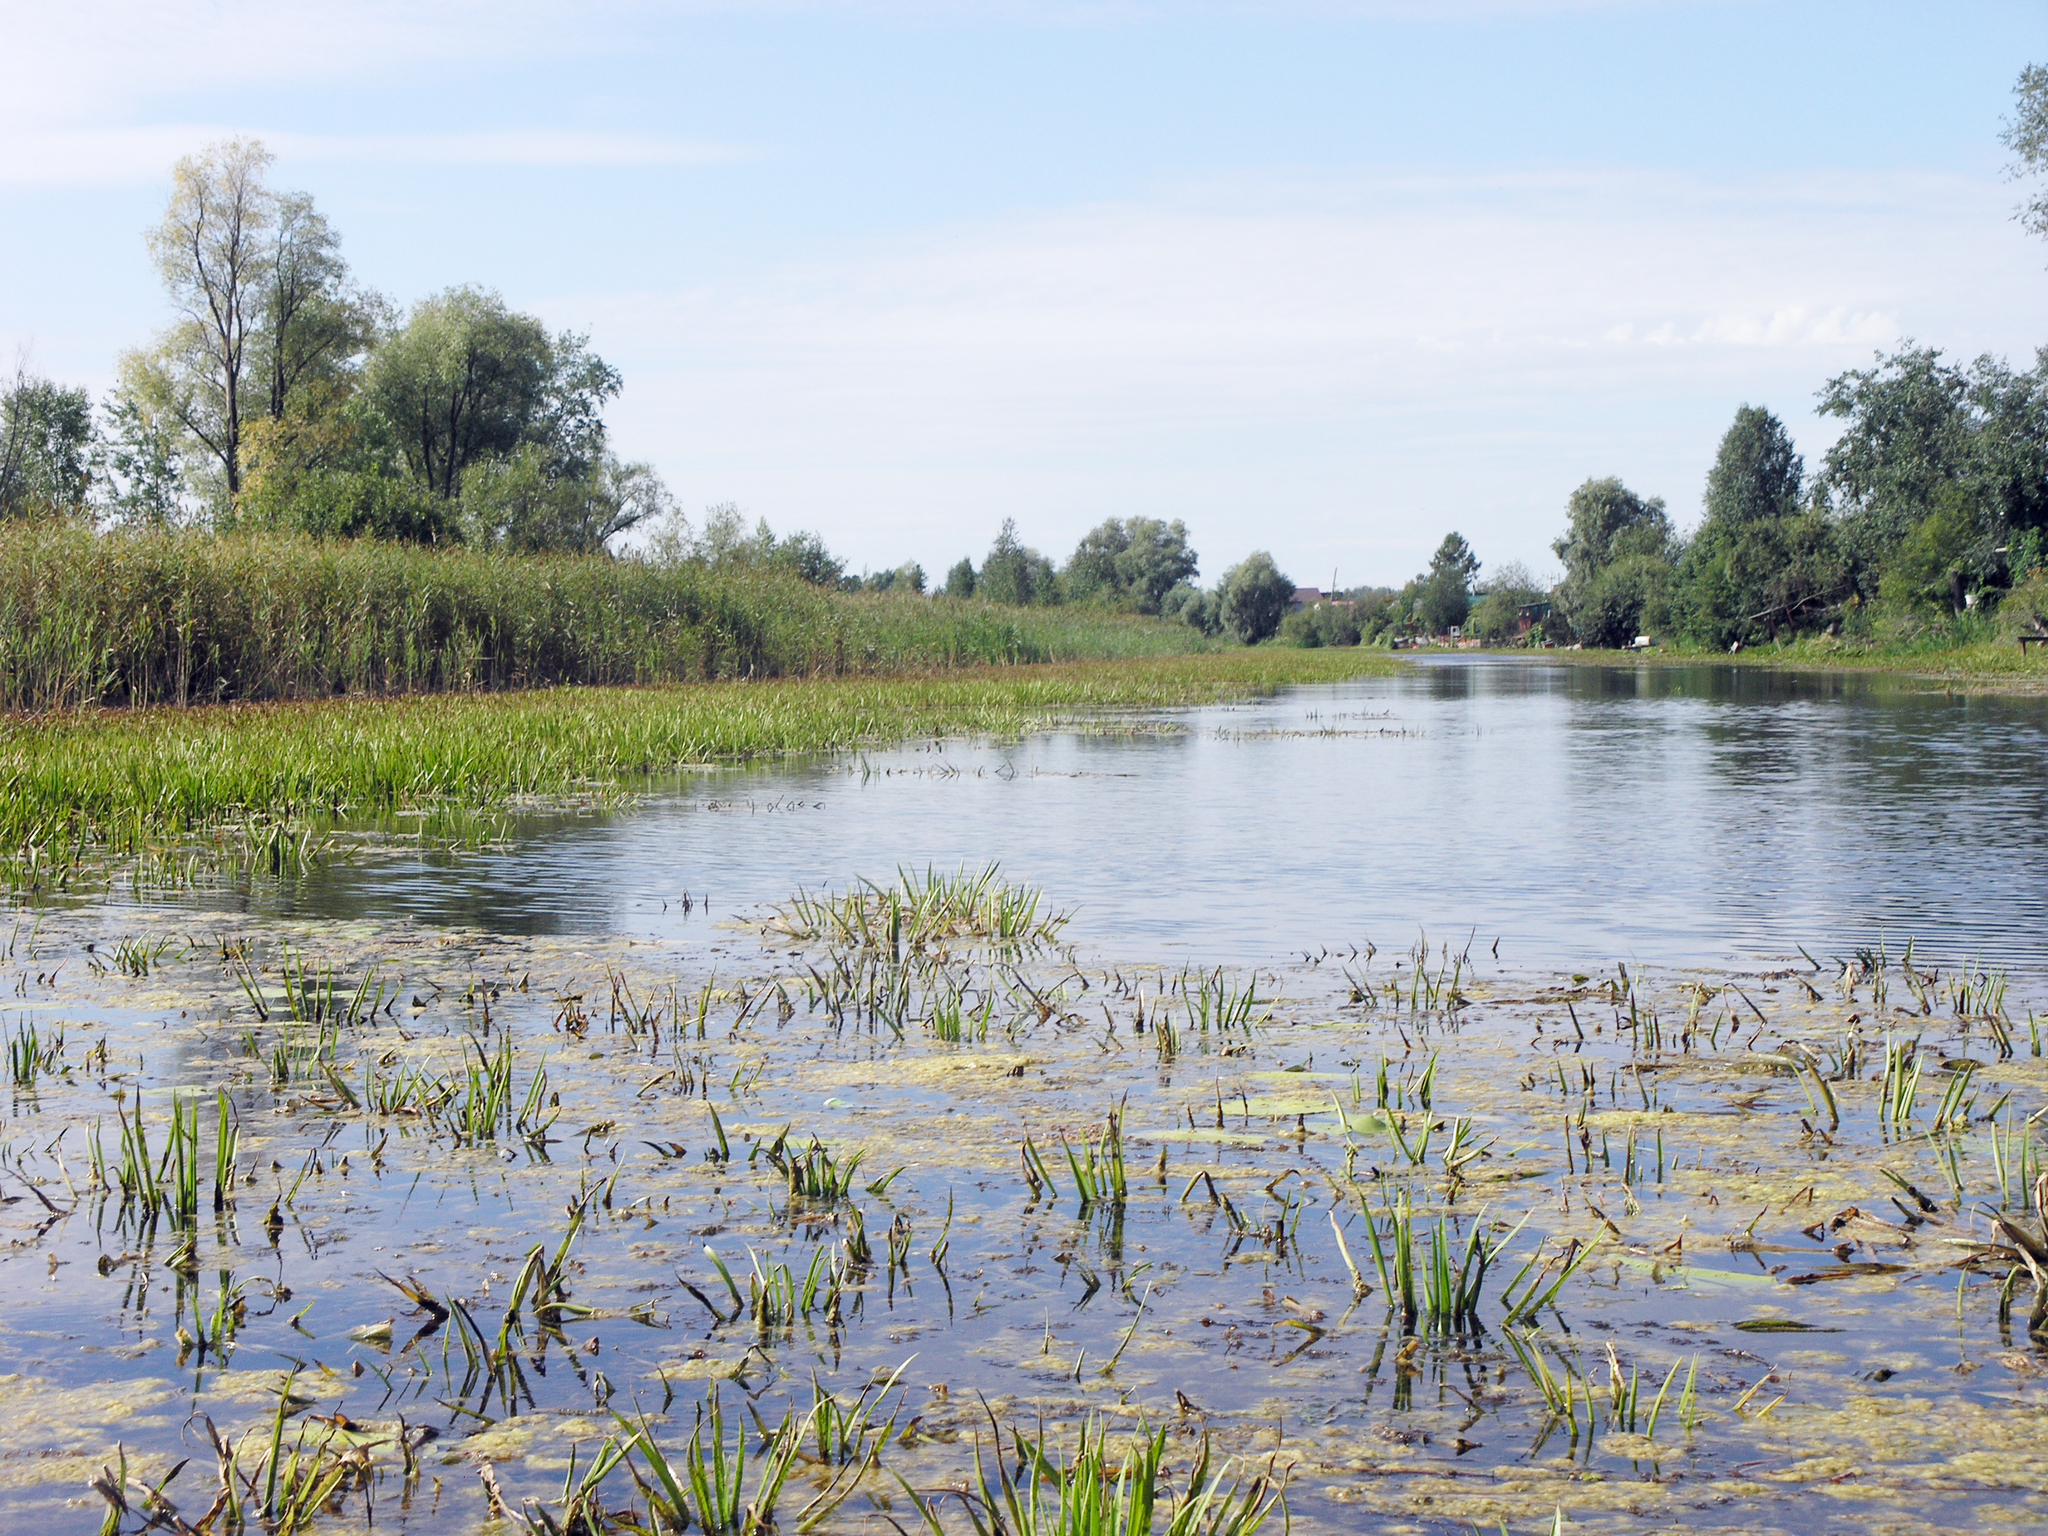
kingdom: Plantae
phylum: Tracheophyta
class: Liliopsida
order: Alismatales
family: Hydrocharitaceae
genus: Stratiotes
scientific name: Stratiotes aloides
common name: Water-soldier
